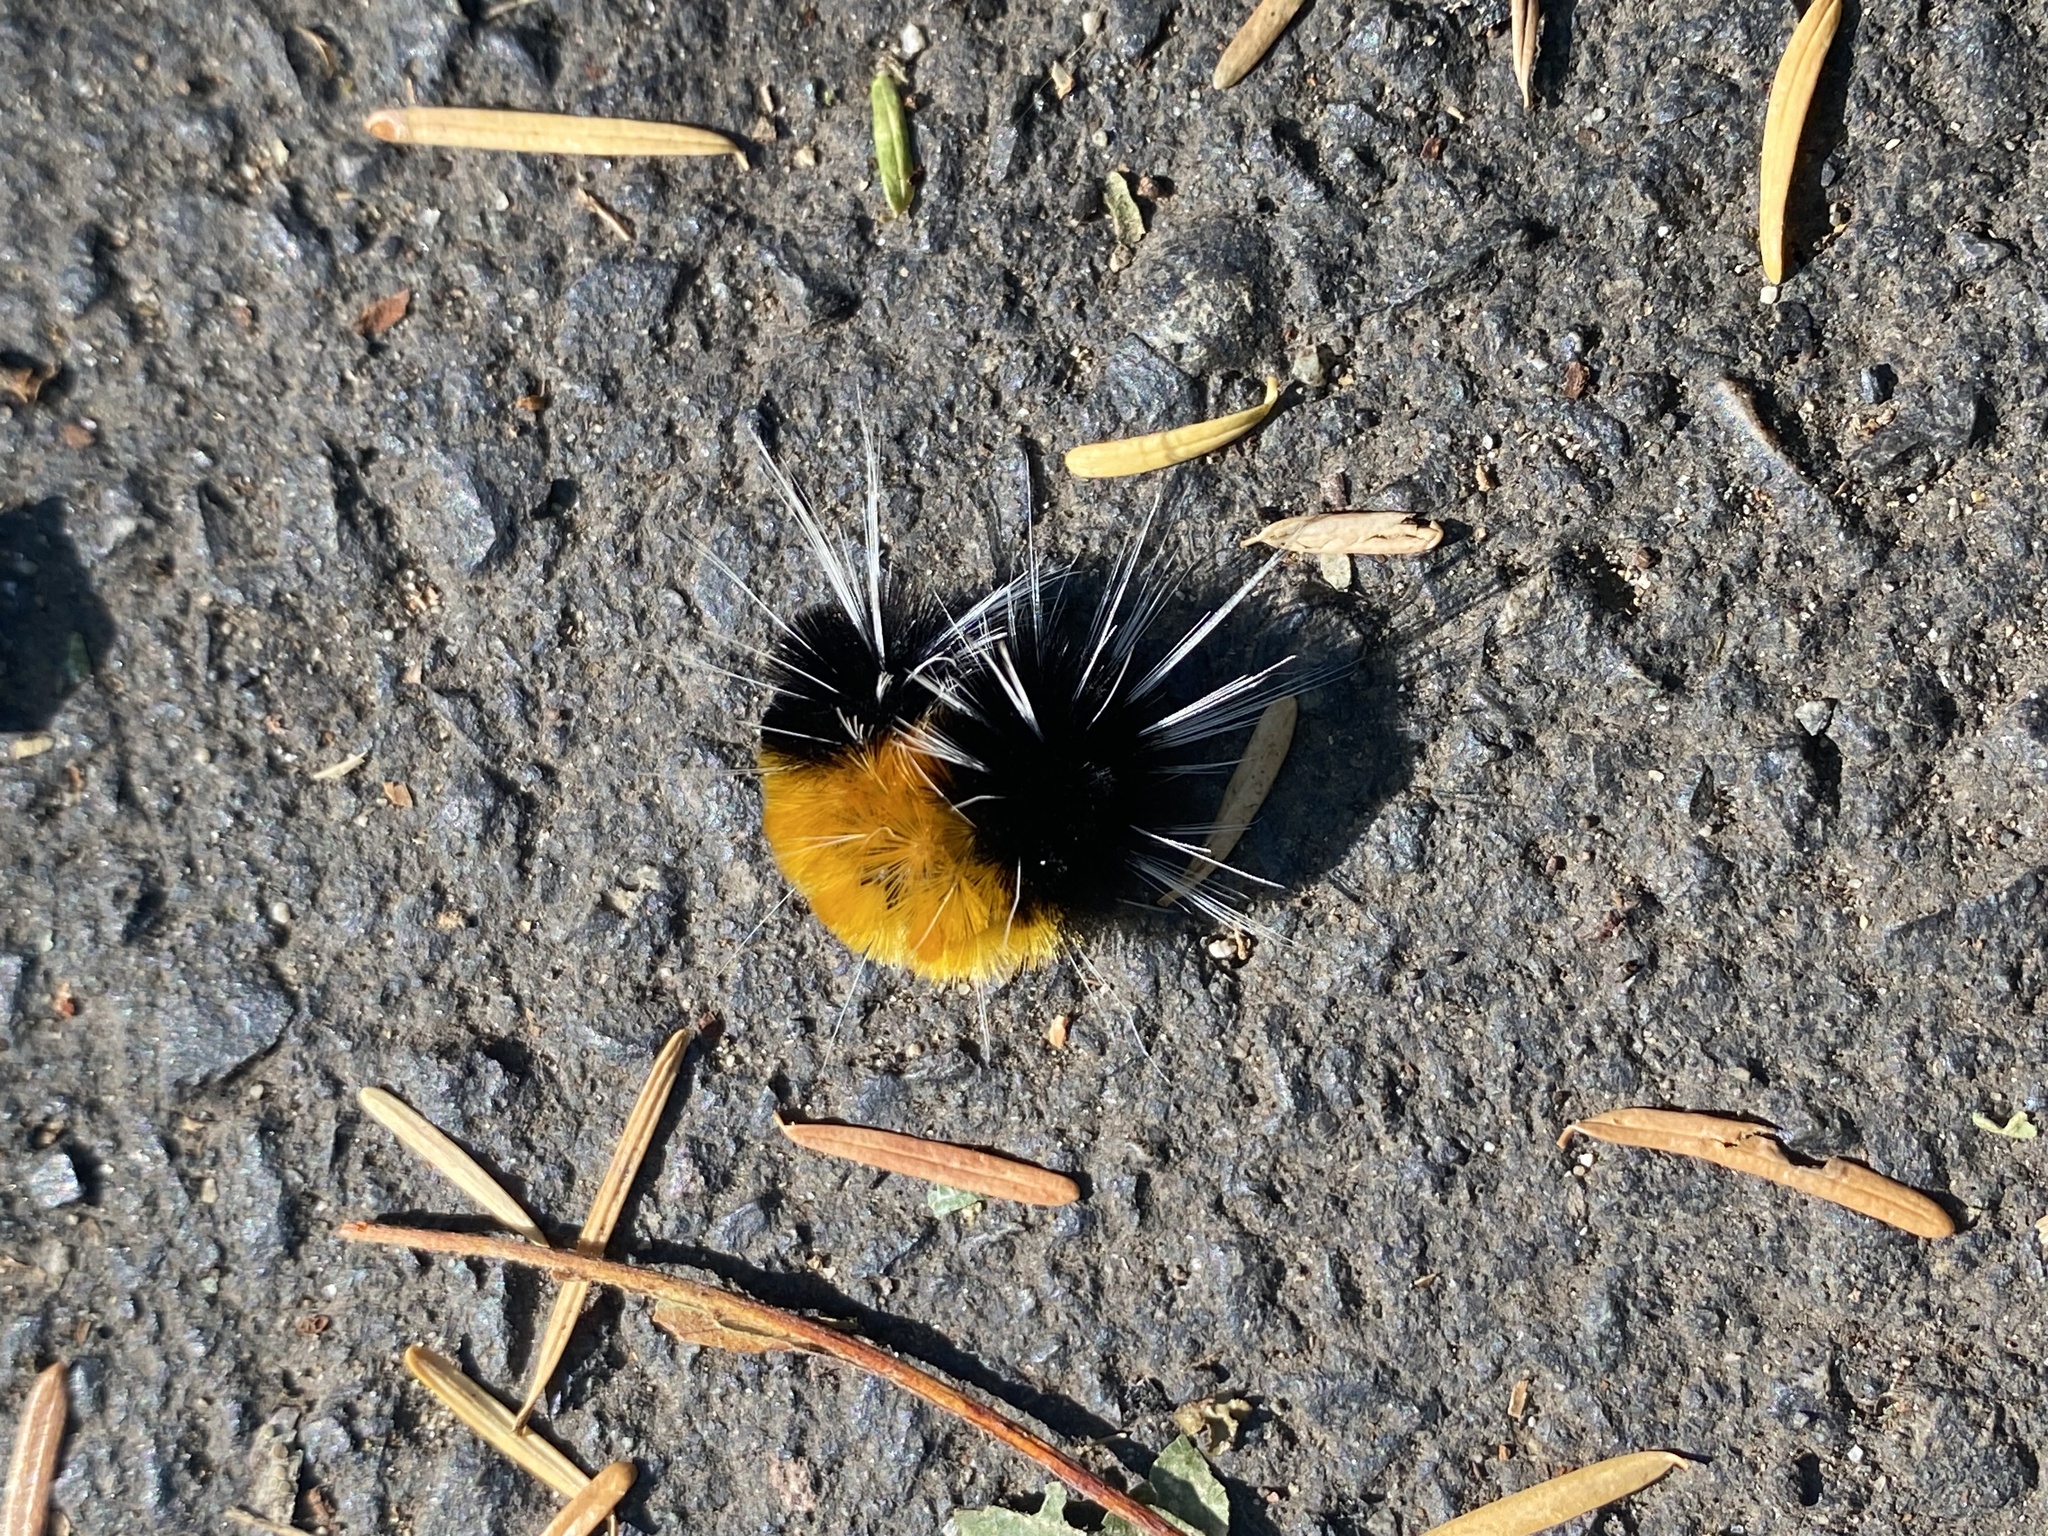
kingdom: Animalia
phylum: Arthropoda
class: Insecta
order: Lepidoptera
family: Erebidae
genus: Lophocampa
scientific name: Lophocampa maculata
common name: Spotted tussock moth
